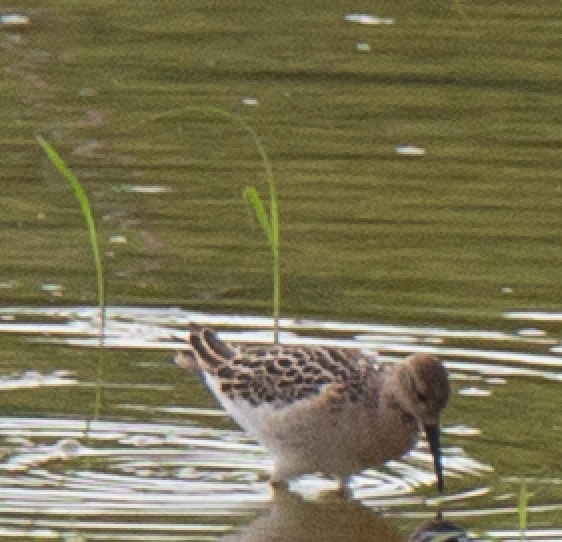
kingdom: Animalia
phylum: Chordata
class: Aves
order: Charadriiformes
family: Scolopacidae
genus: Calidris
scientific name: Calidris pugnax
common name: Ruff
